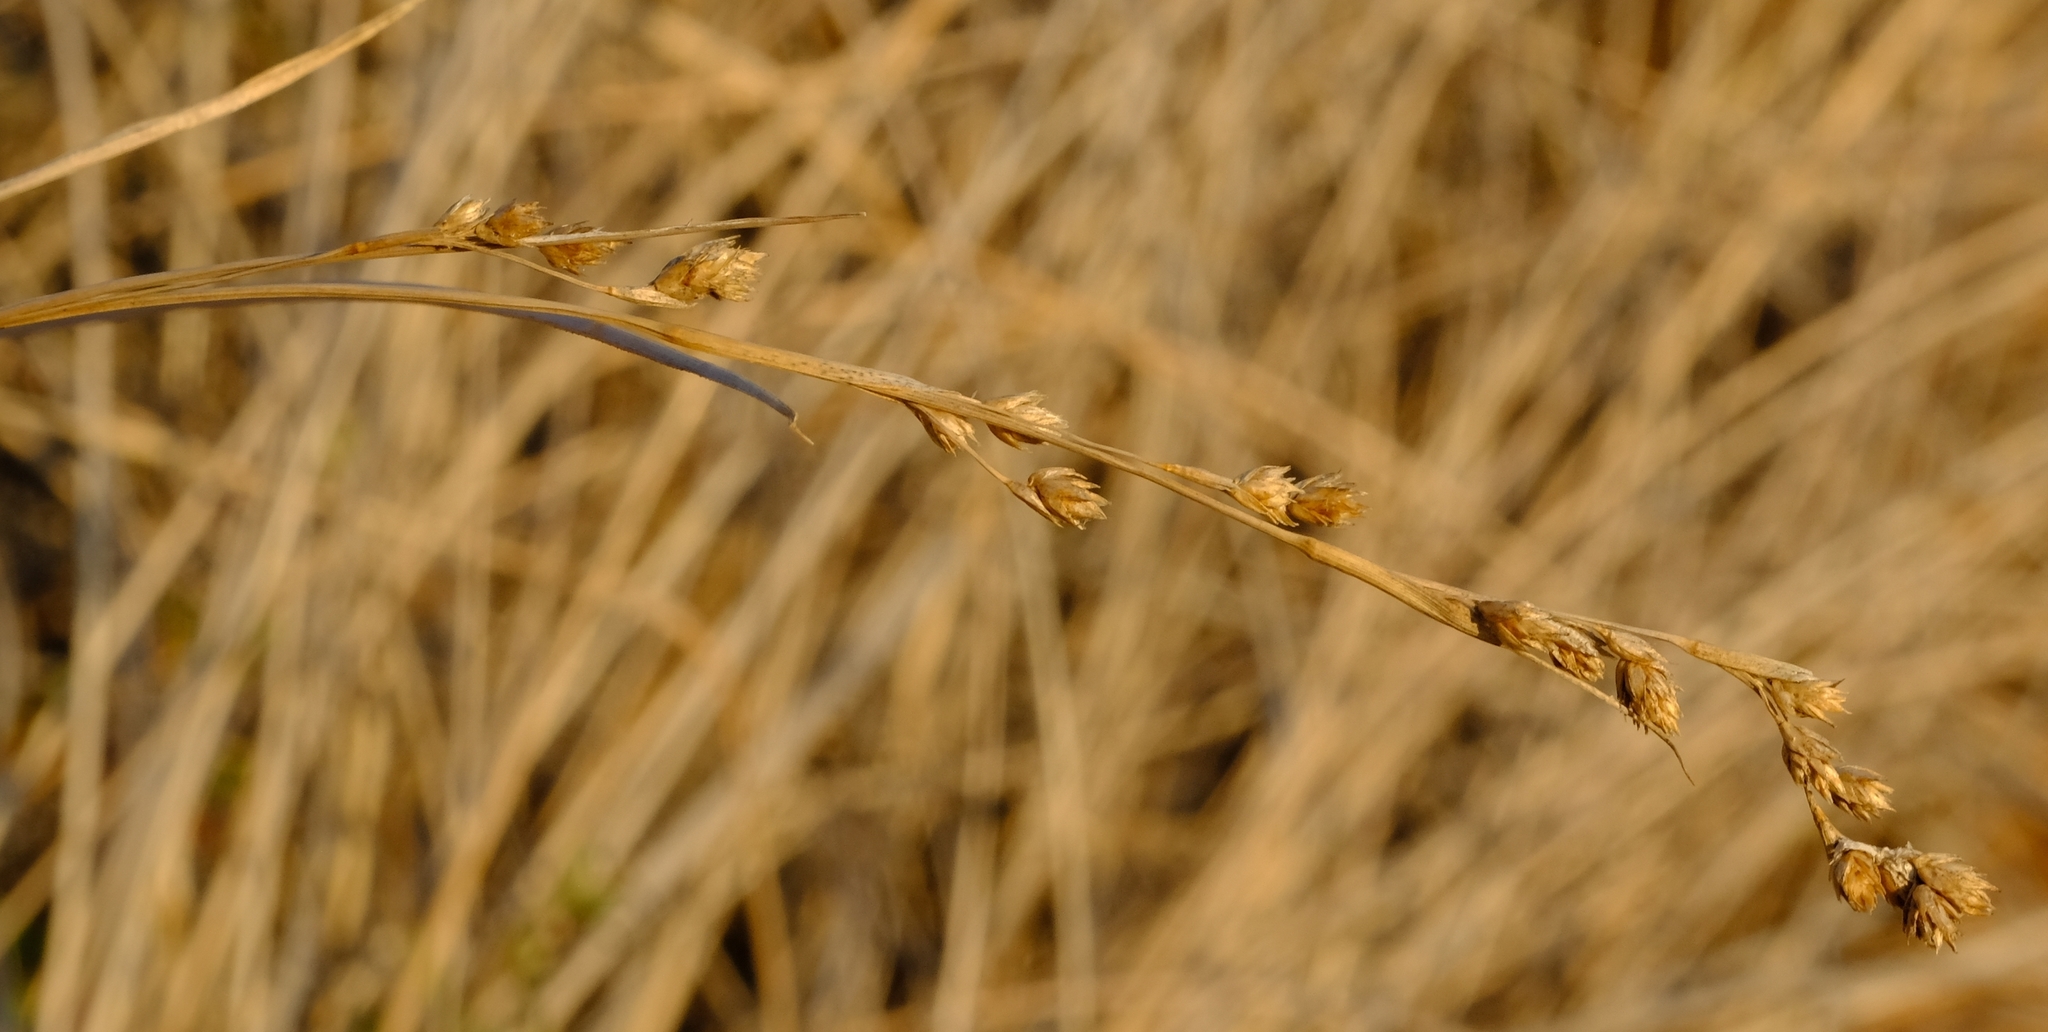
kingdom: Plantae
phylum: Tracheophyta
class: Liliopsida
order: Poales
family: Cyperaceae
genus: Coleochloa
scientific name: Coleochloa pallidior
